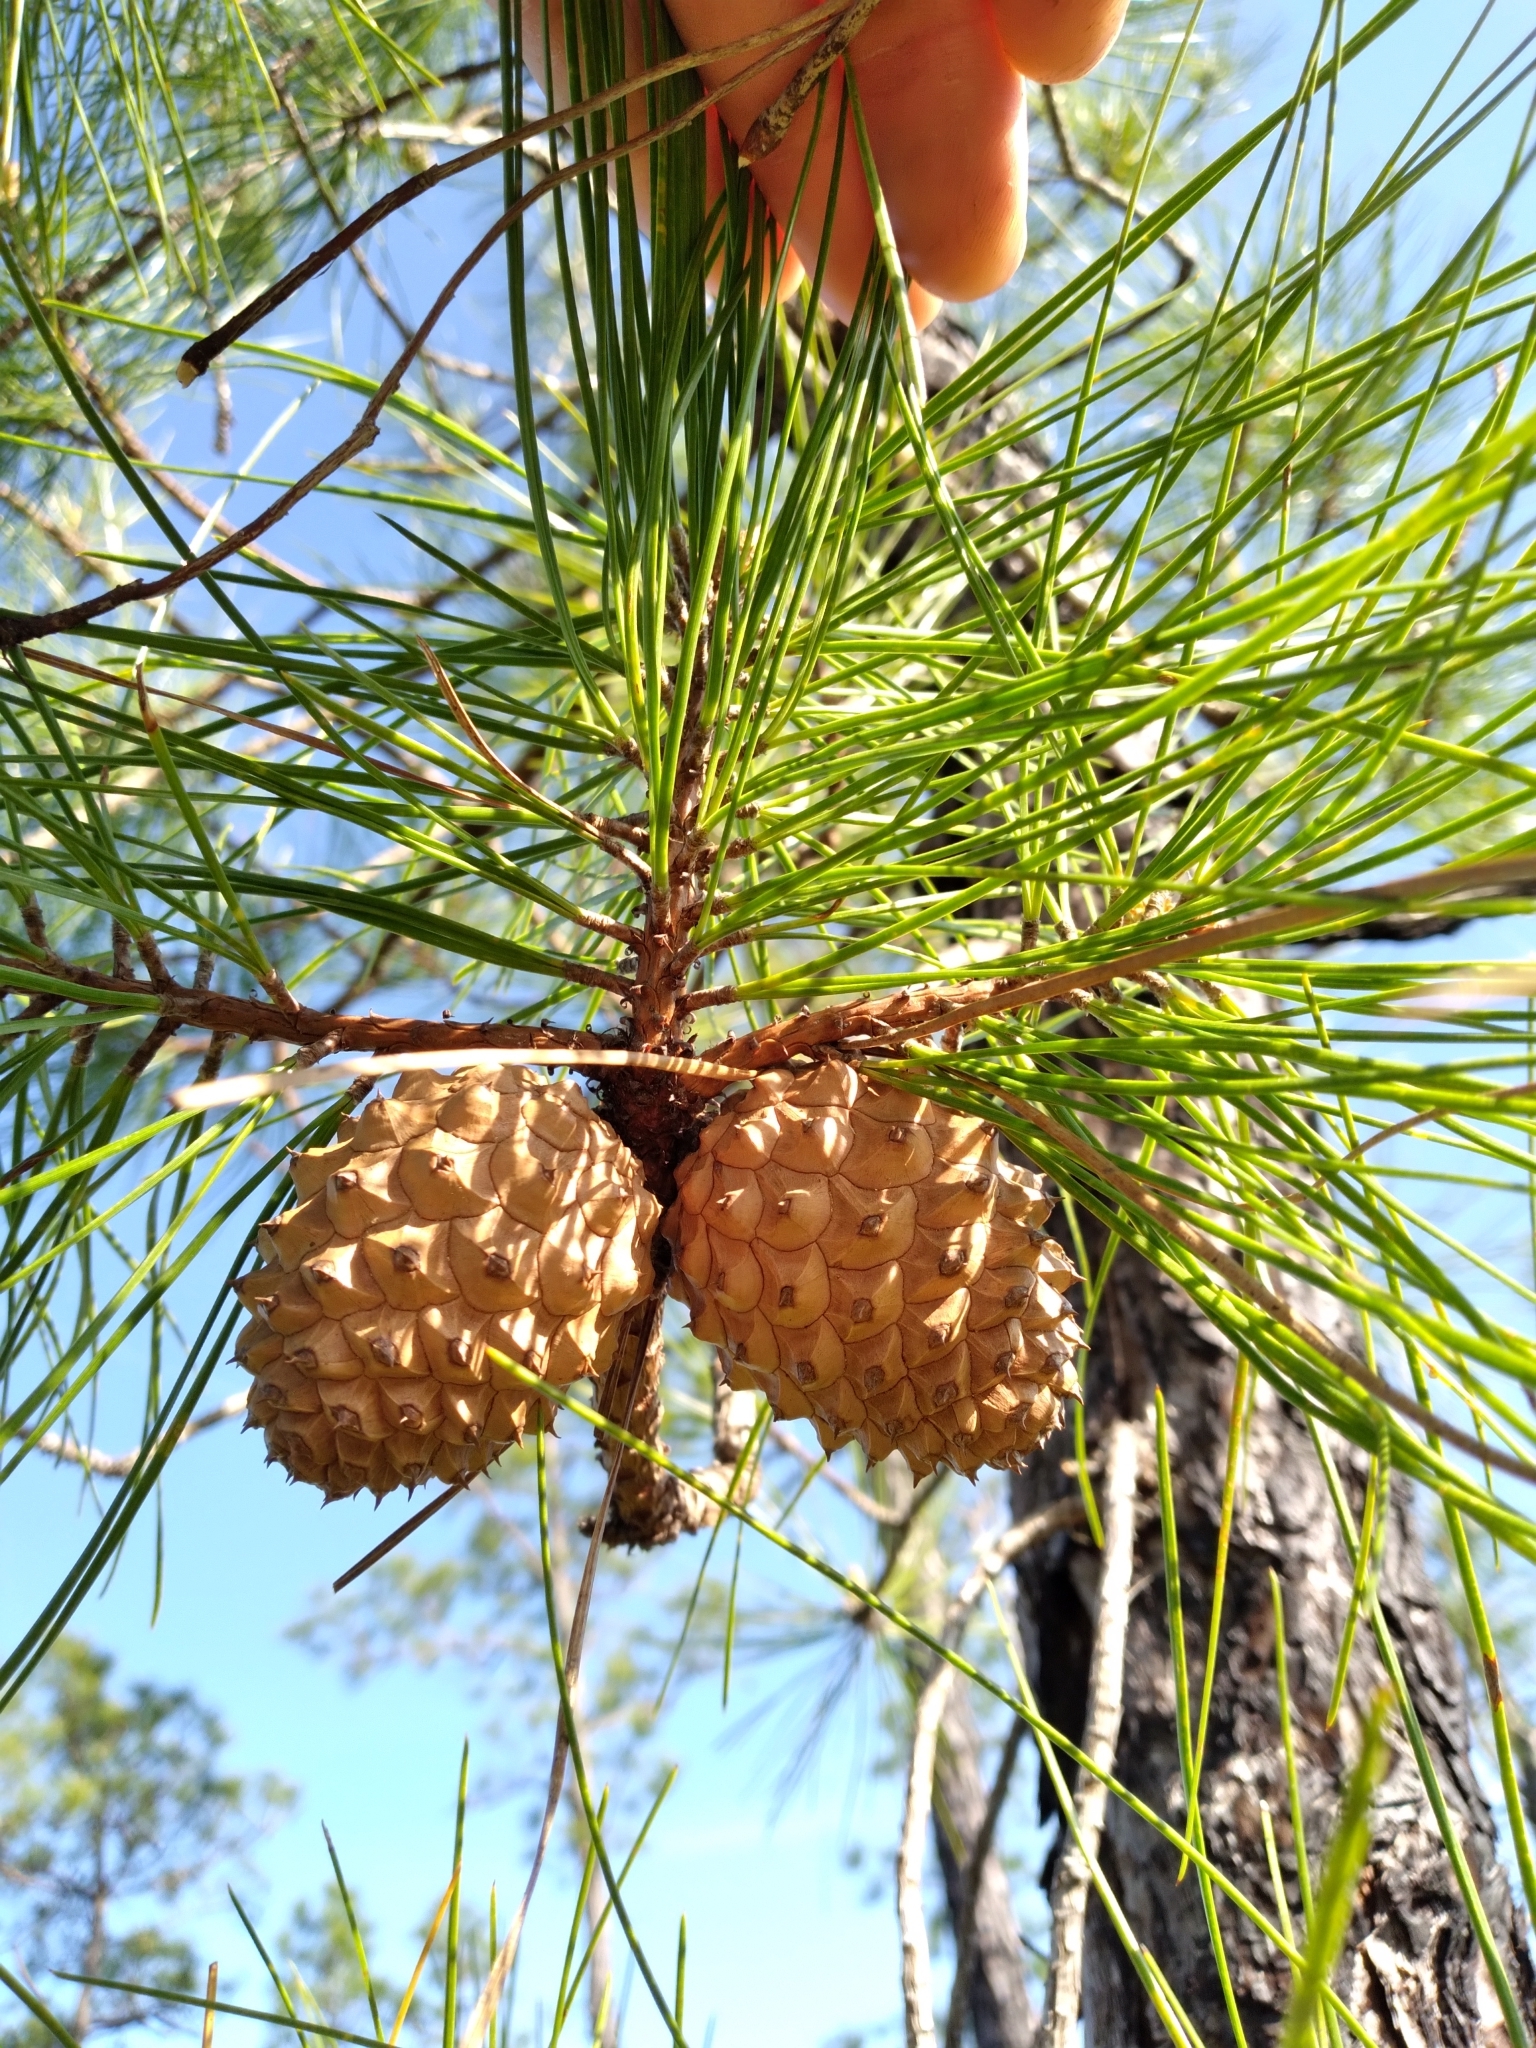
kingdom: Plantae
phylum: Tracheophyta
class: Pinopsida
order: Pinales
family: Pinaceae
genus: Pinus
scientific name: Pinus serotina
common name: Marsh pine
